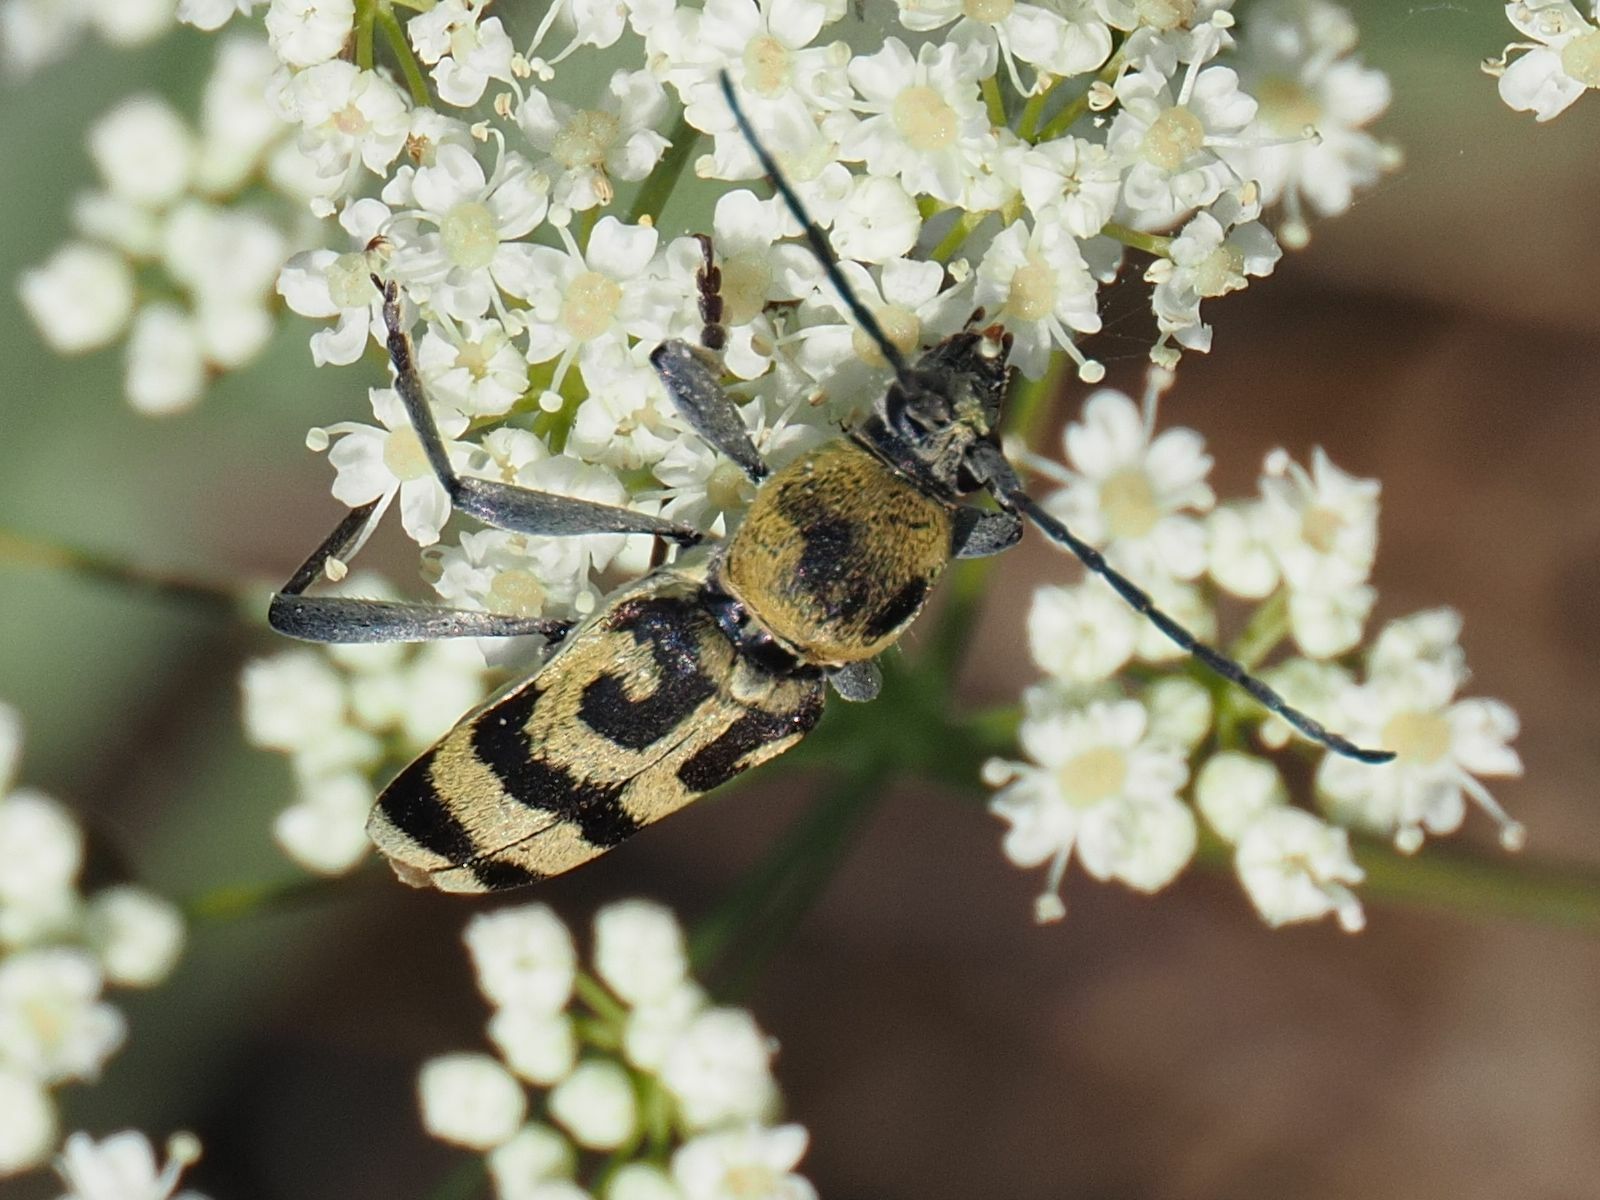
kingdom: Animalia
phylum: Arthropoda
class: Insecta
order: Coleoptera
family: Cerambycidae
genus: Chlorophorus
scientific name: Chlorophorus varius
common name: Grape wood borer
